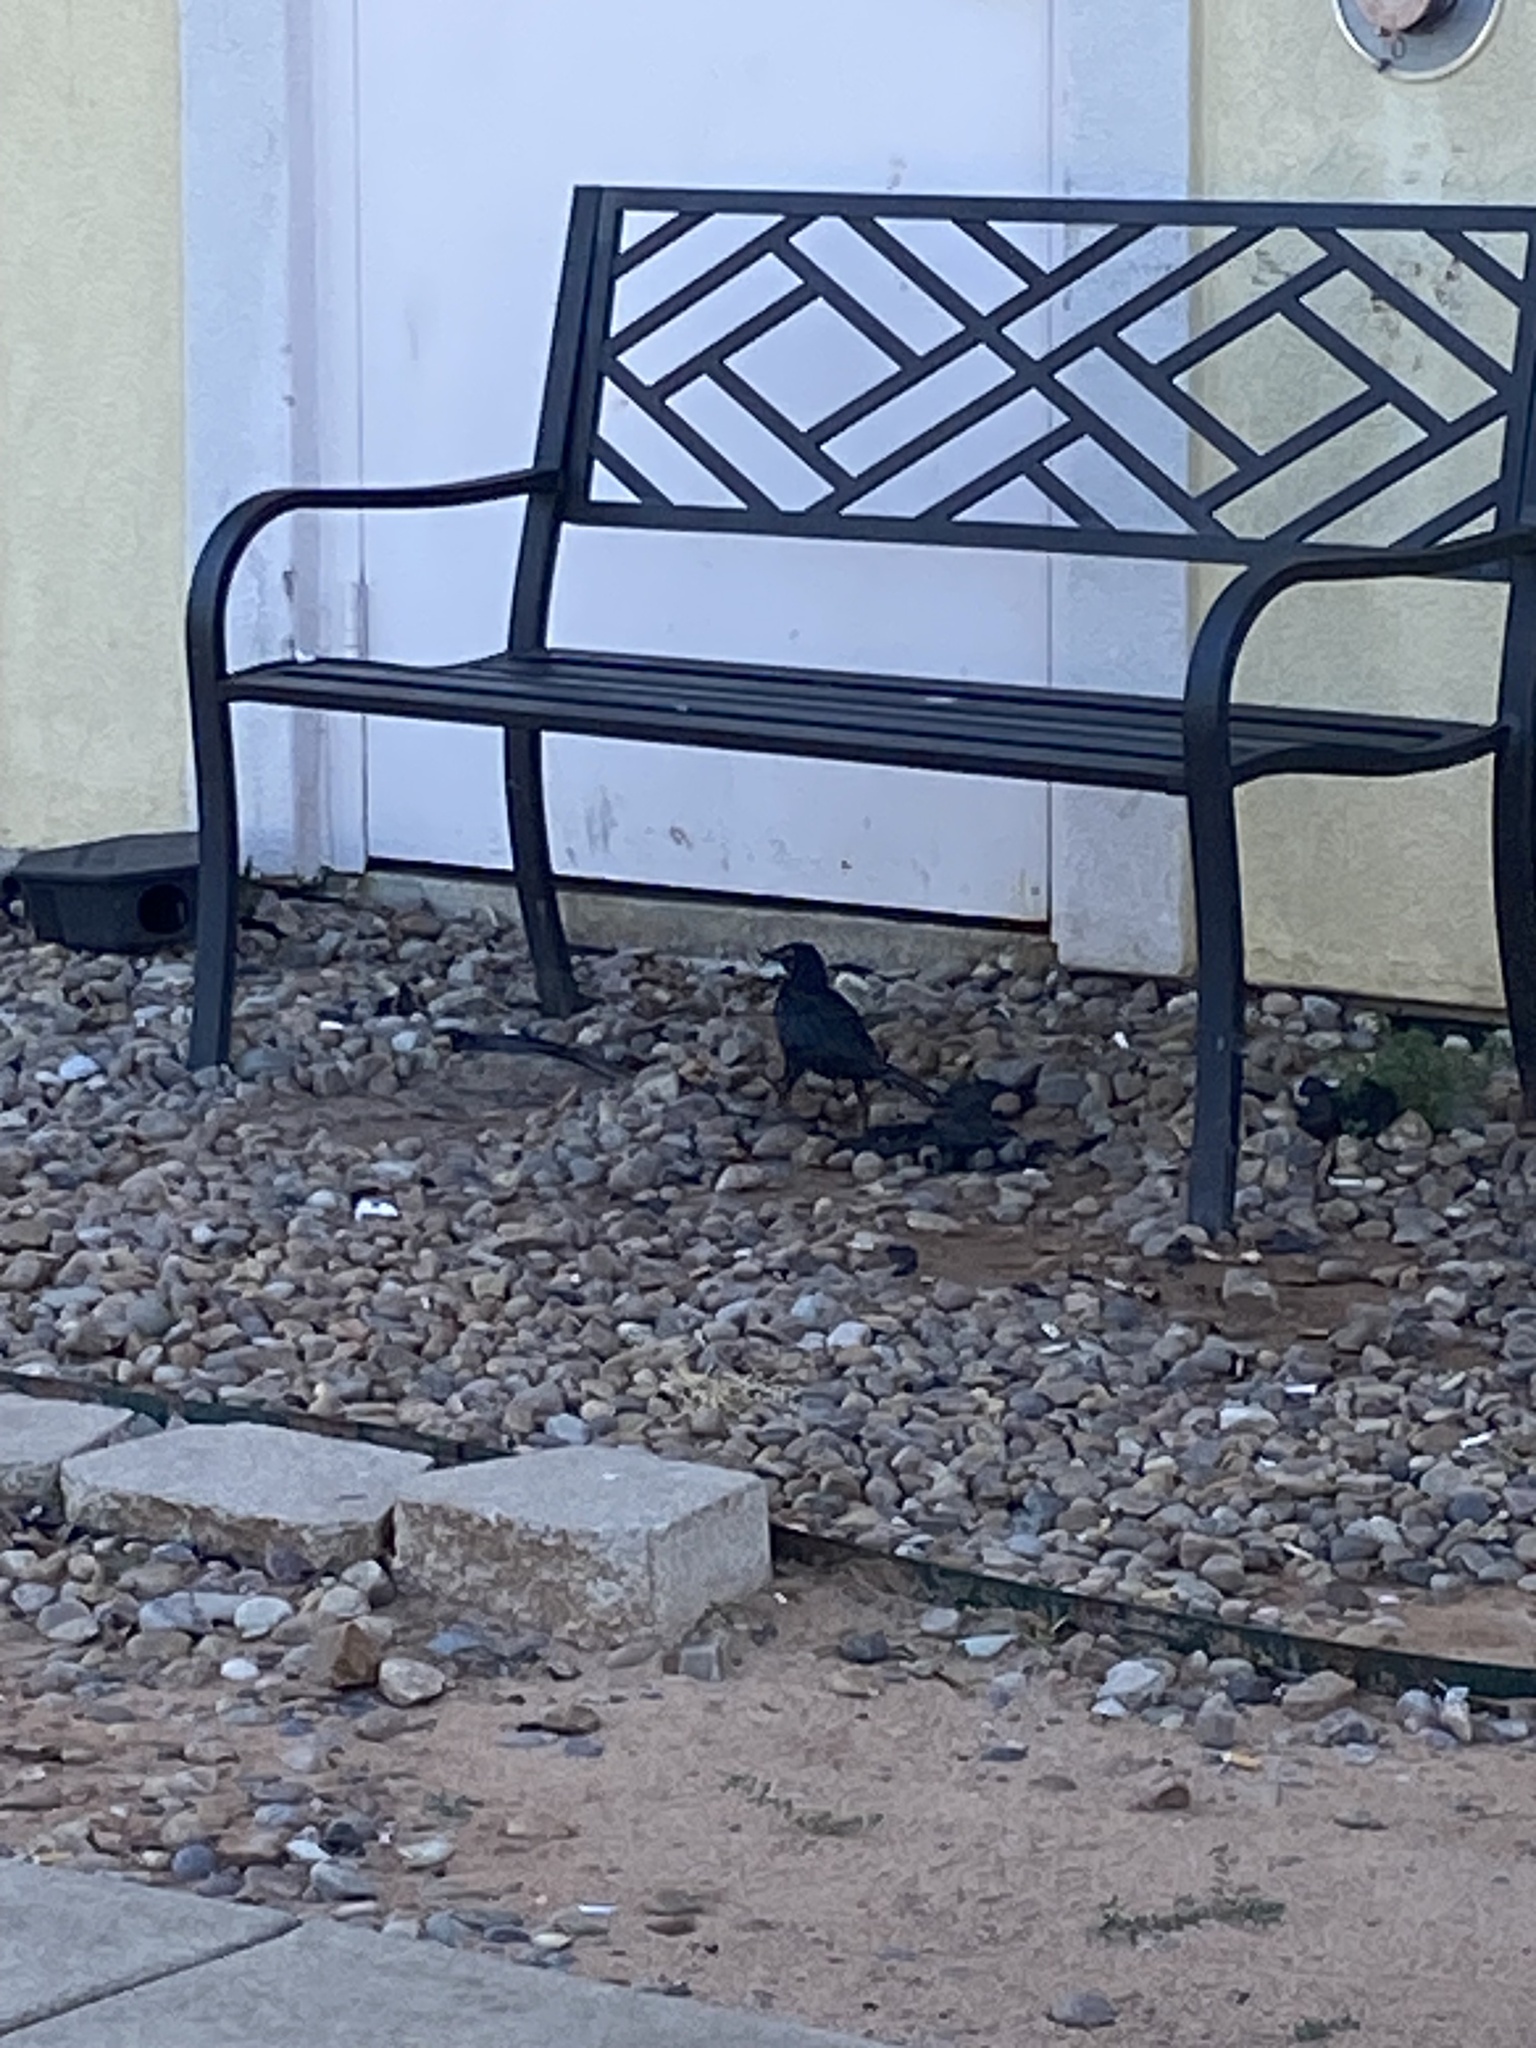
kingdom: Animalia
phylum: Chordata
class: Aves
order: Passeriformes
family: Icteridae
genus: Quiscalus
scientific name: Quiscalus mexicanus
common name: Great-tailed grackle
